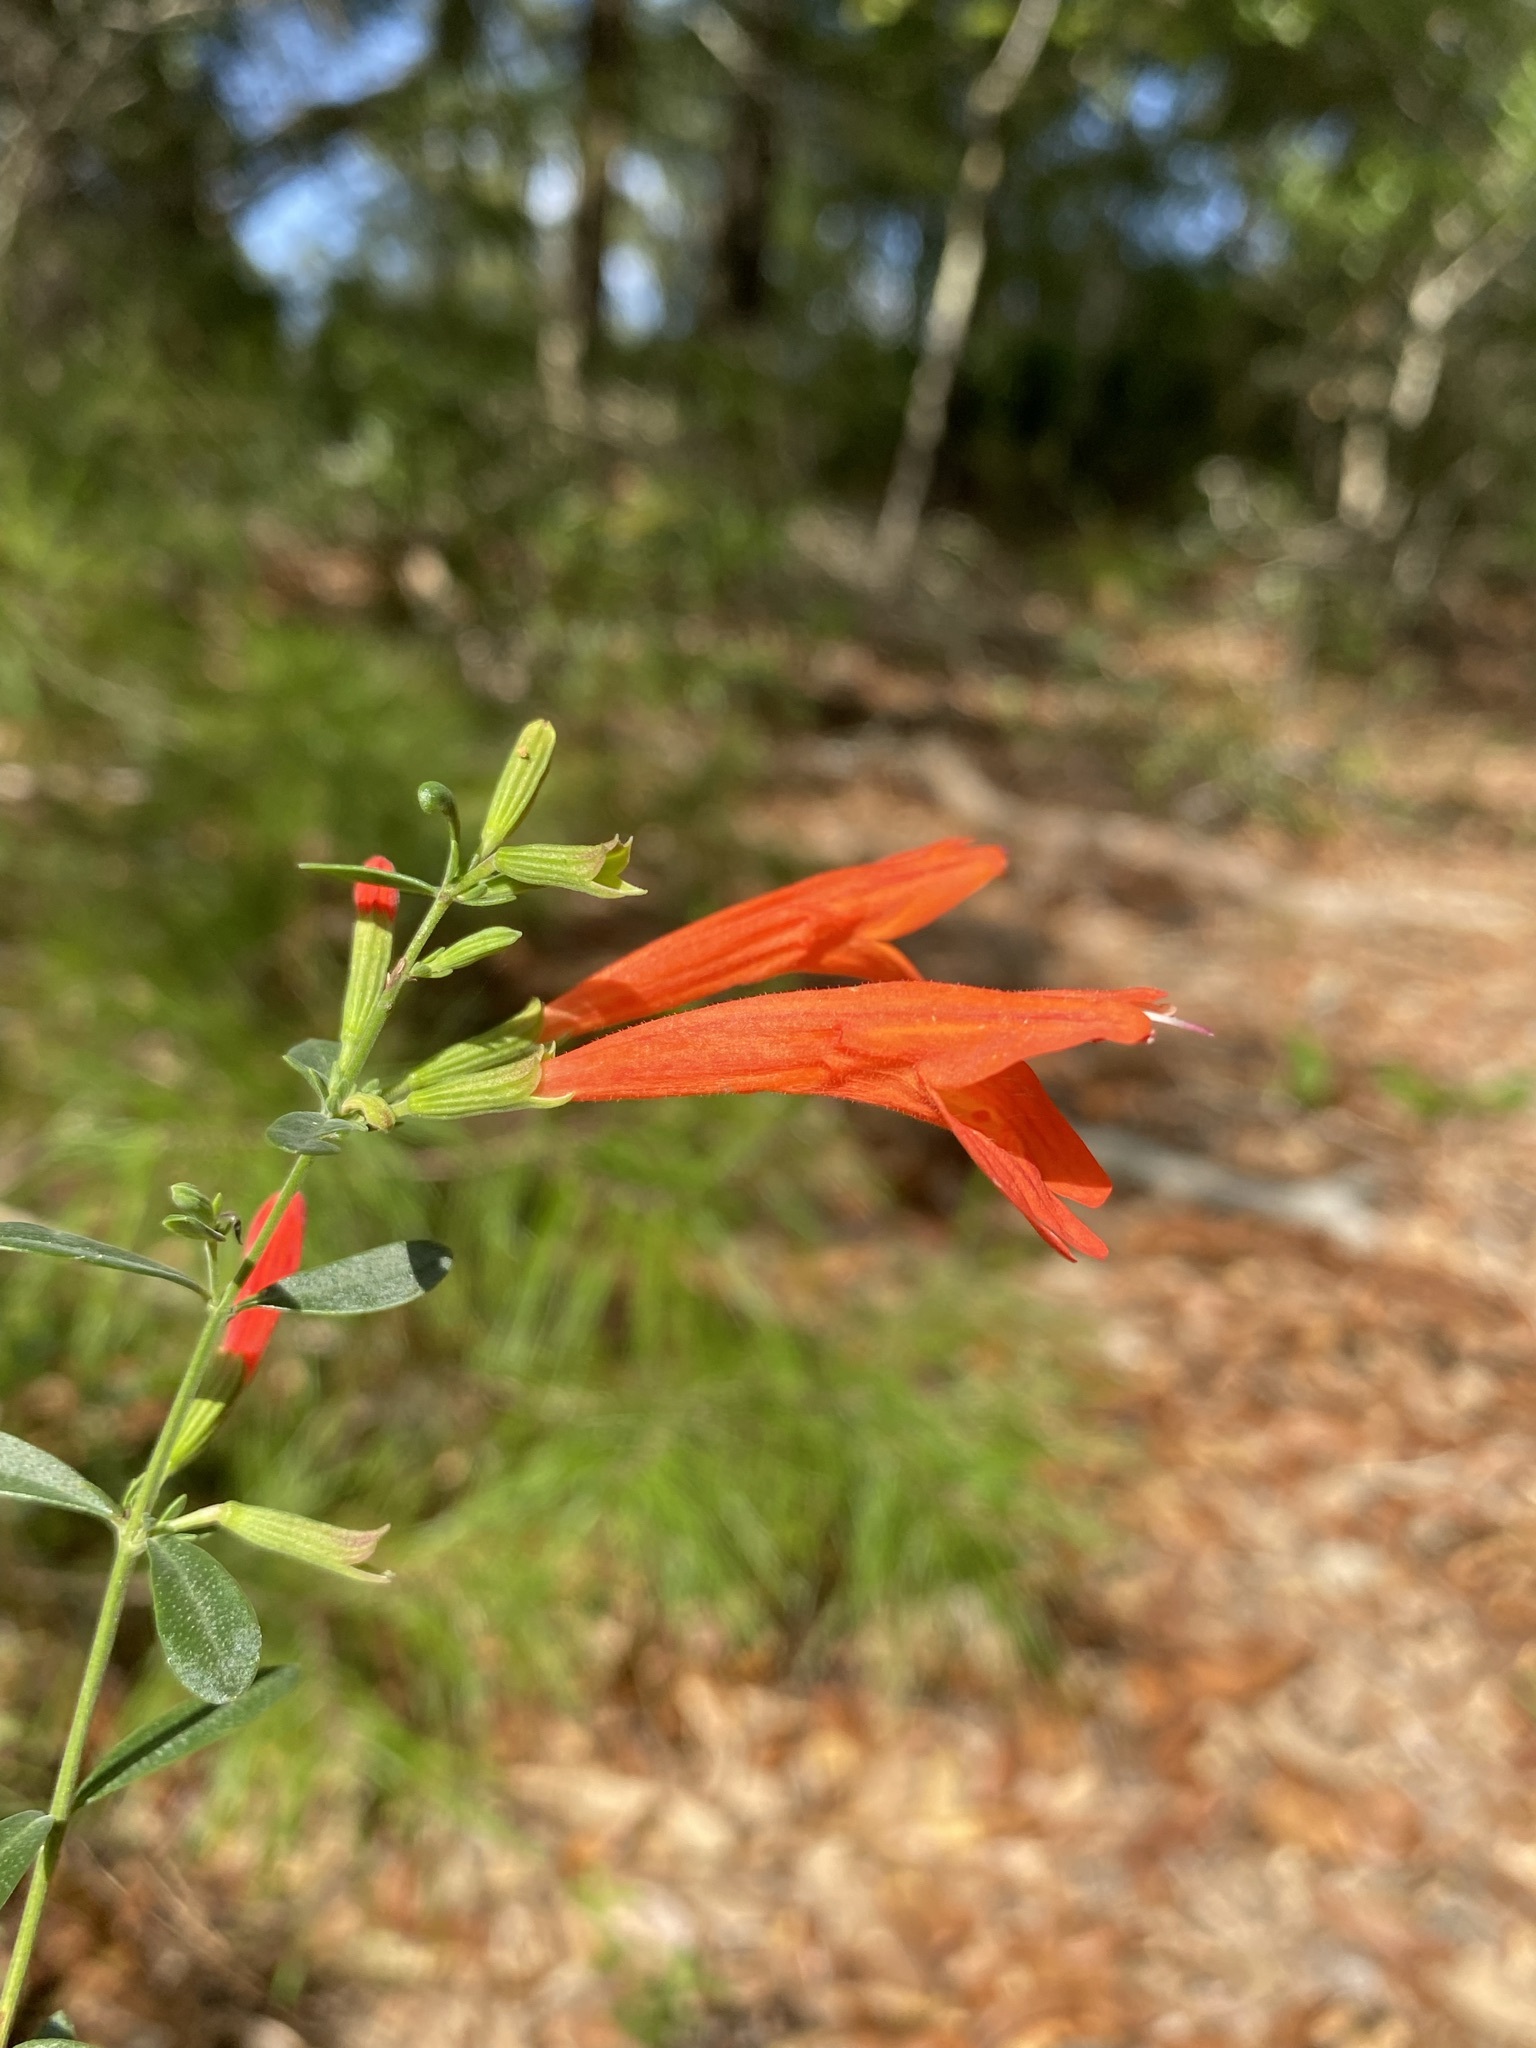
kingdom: Plantae
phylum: Tracheophyta
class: Magnoliopsida
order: Lamiales
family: Lamiaceae
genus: Clinopodium
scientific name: Clinopodium coccineum
